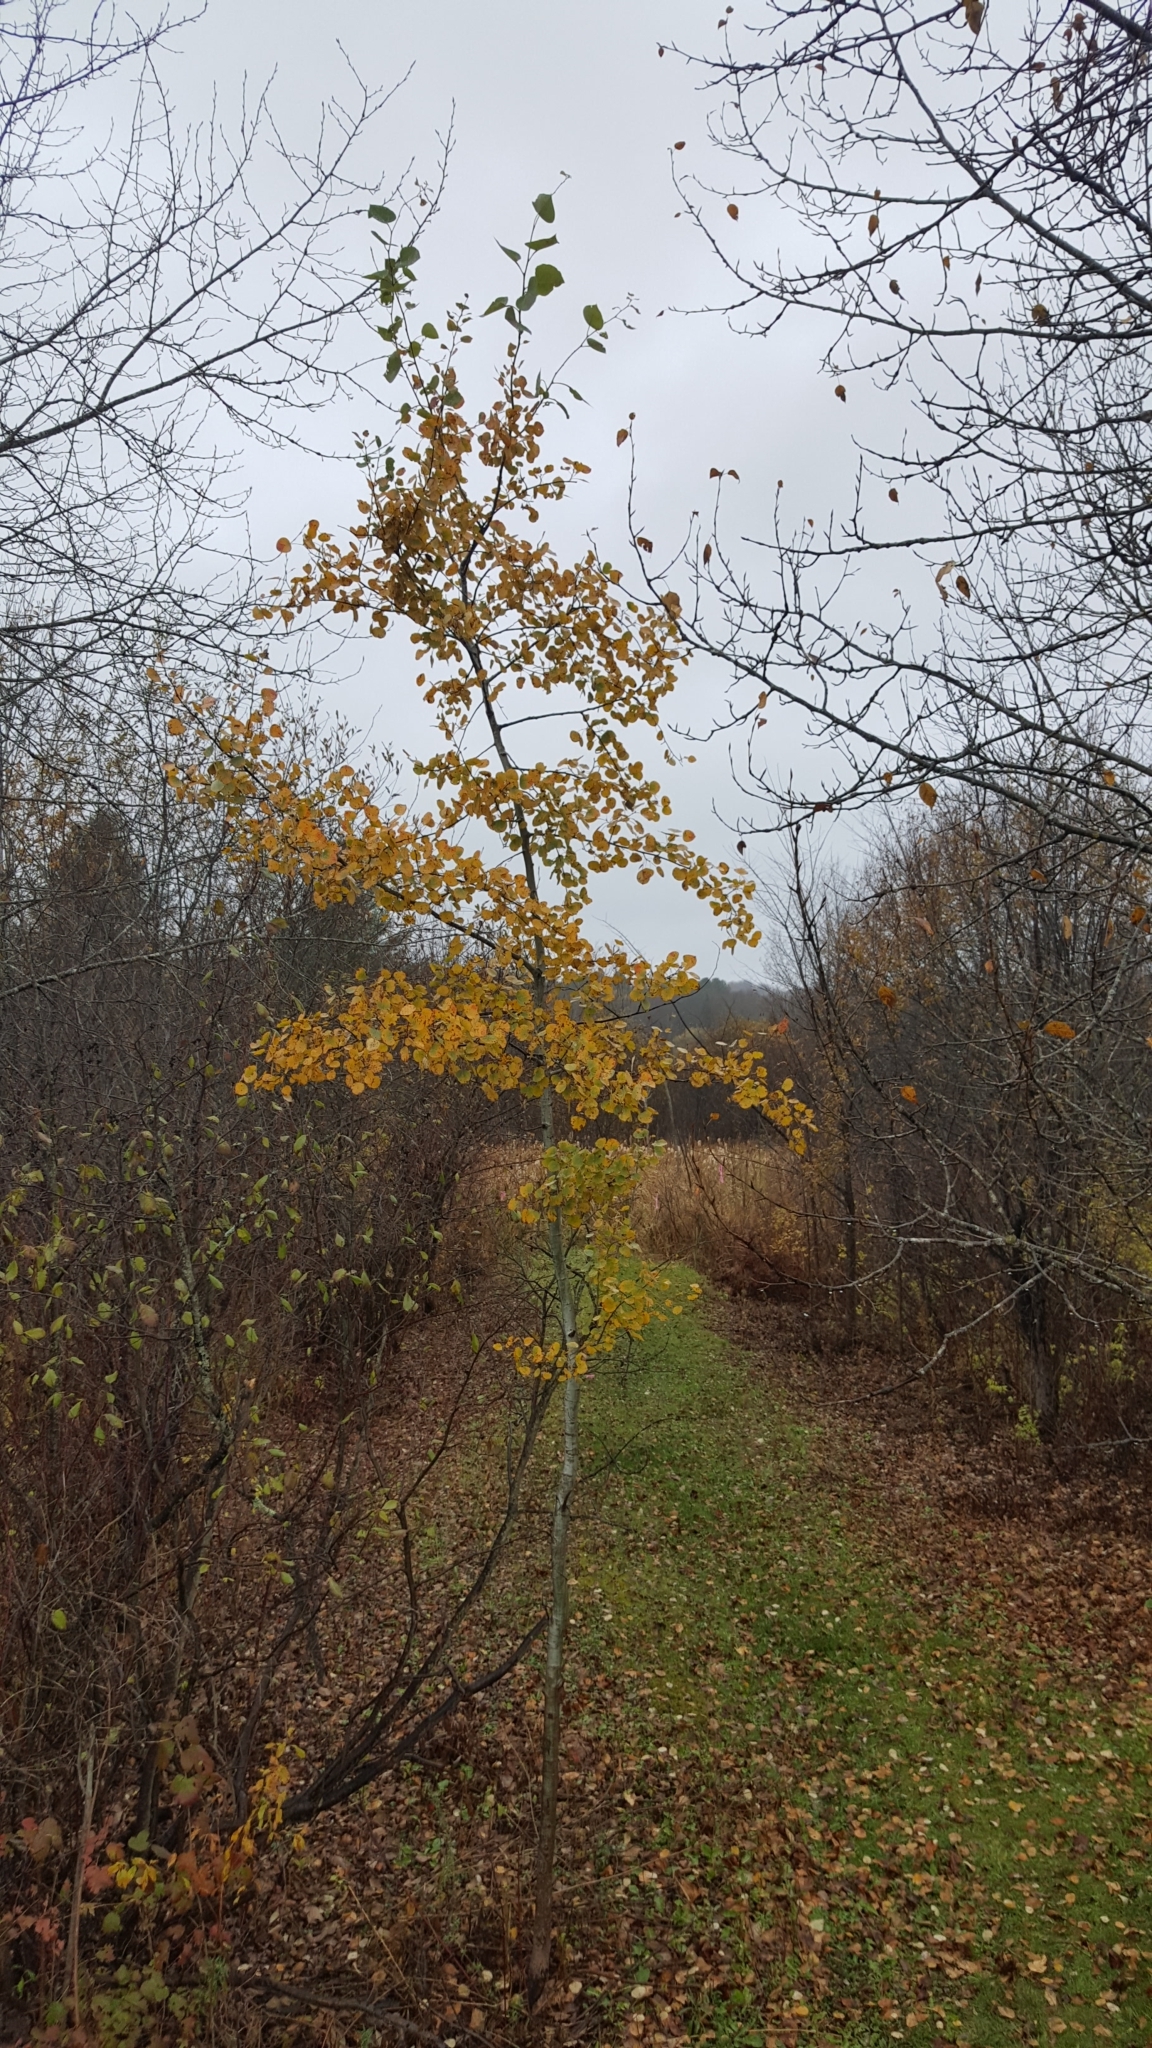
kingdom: Plantae
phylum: Tracheophyta
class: Magnoliopsida
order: Malpighiales
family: Salicaceae
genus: Populus
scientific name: Populus tremuloides
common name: Quaking aspen
